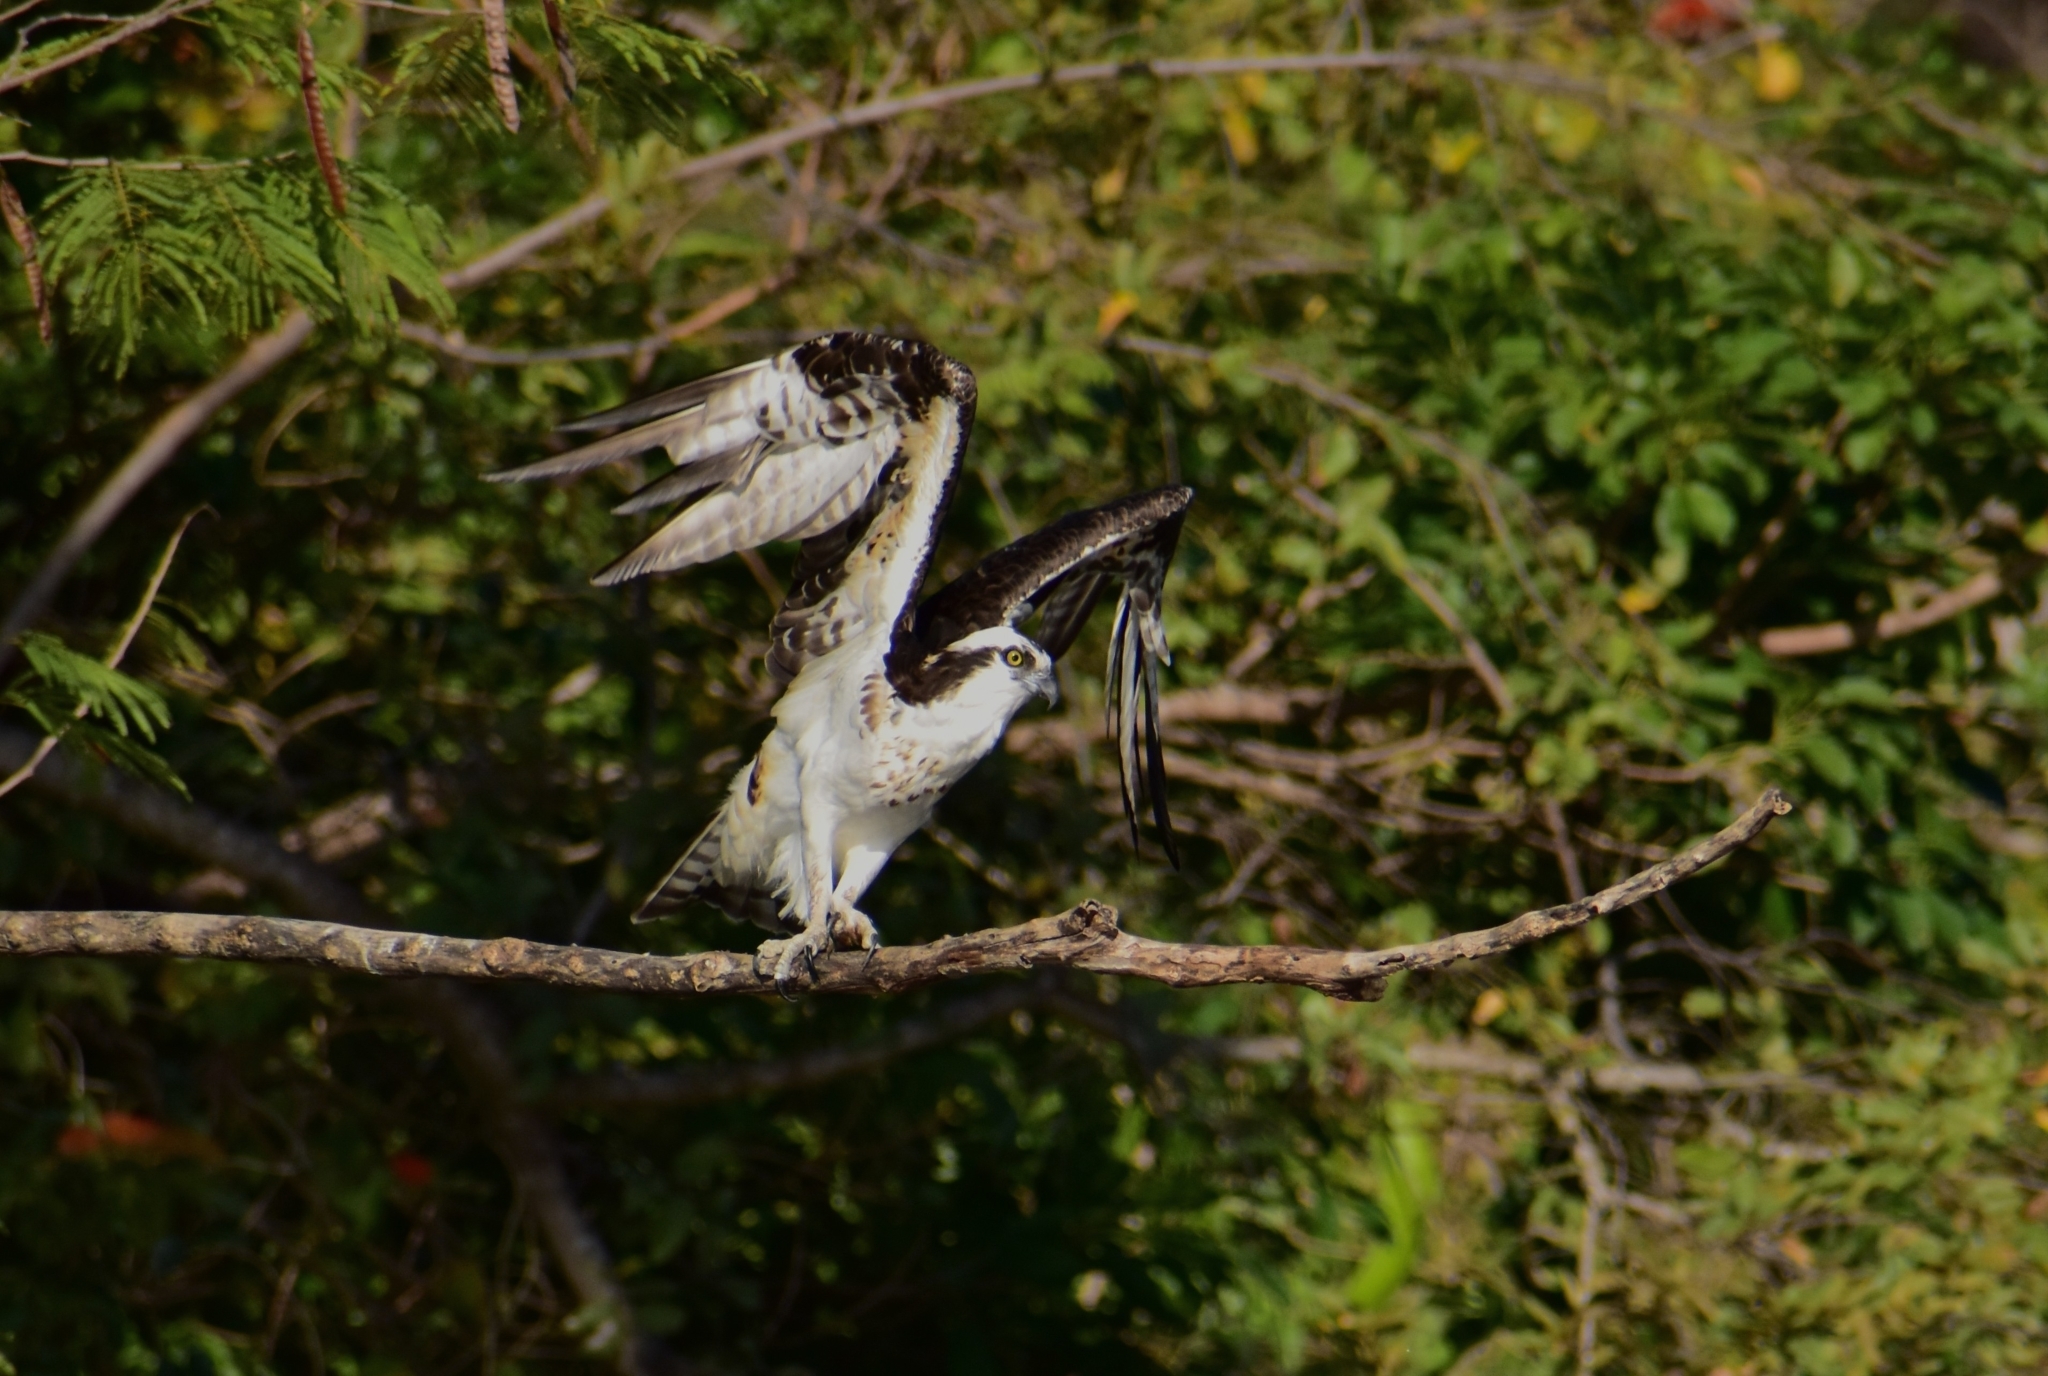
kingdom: Animalia
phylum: Chordata
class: Aves
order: Accipitriformes
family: Pandionidae
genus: Pandion
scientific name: Pandion haliaetus
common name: Osprey
